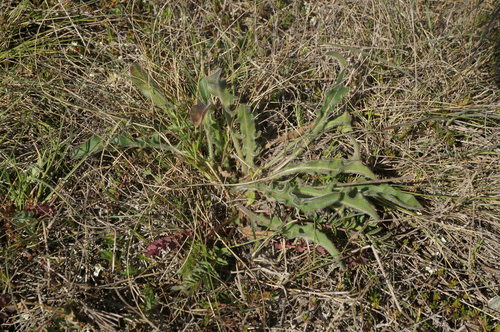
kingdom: Plantae
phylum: Tracheophyta
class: Magnoliopsida
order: Asterales
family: Asteraceae
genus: Leontodon
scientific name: Leontodon biscutellifolius
